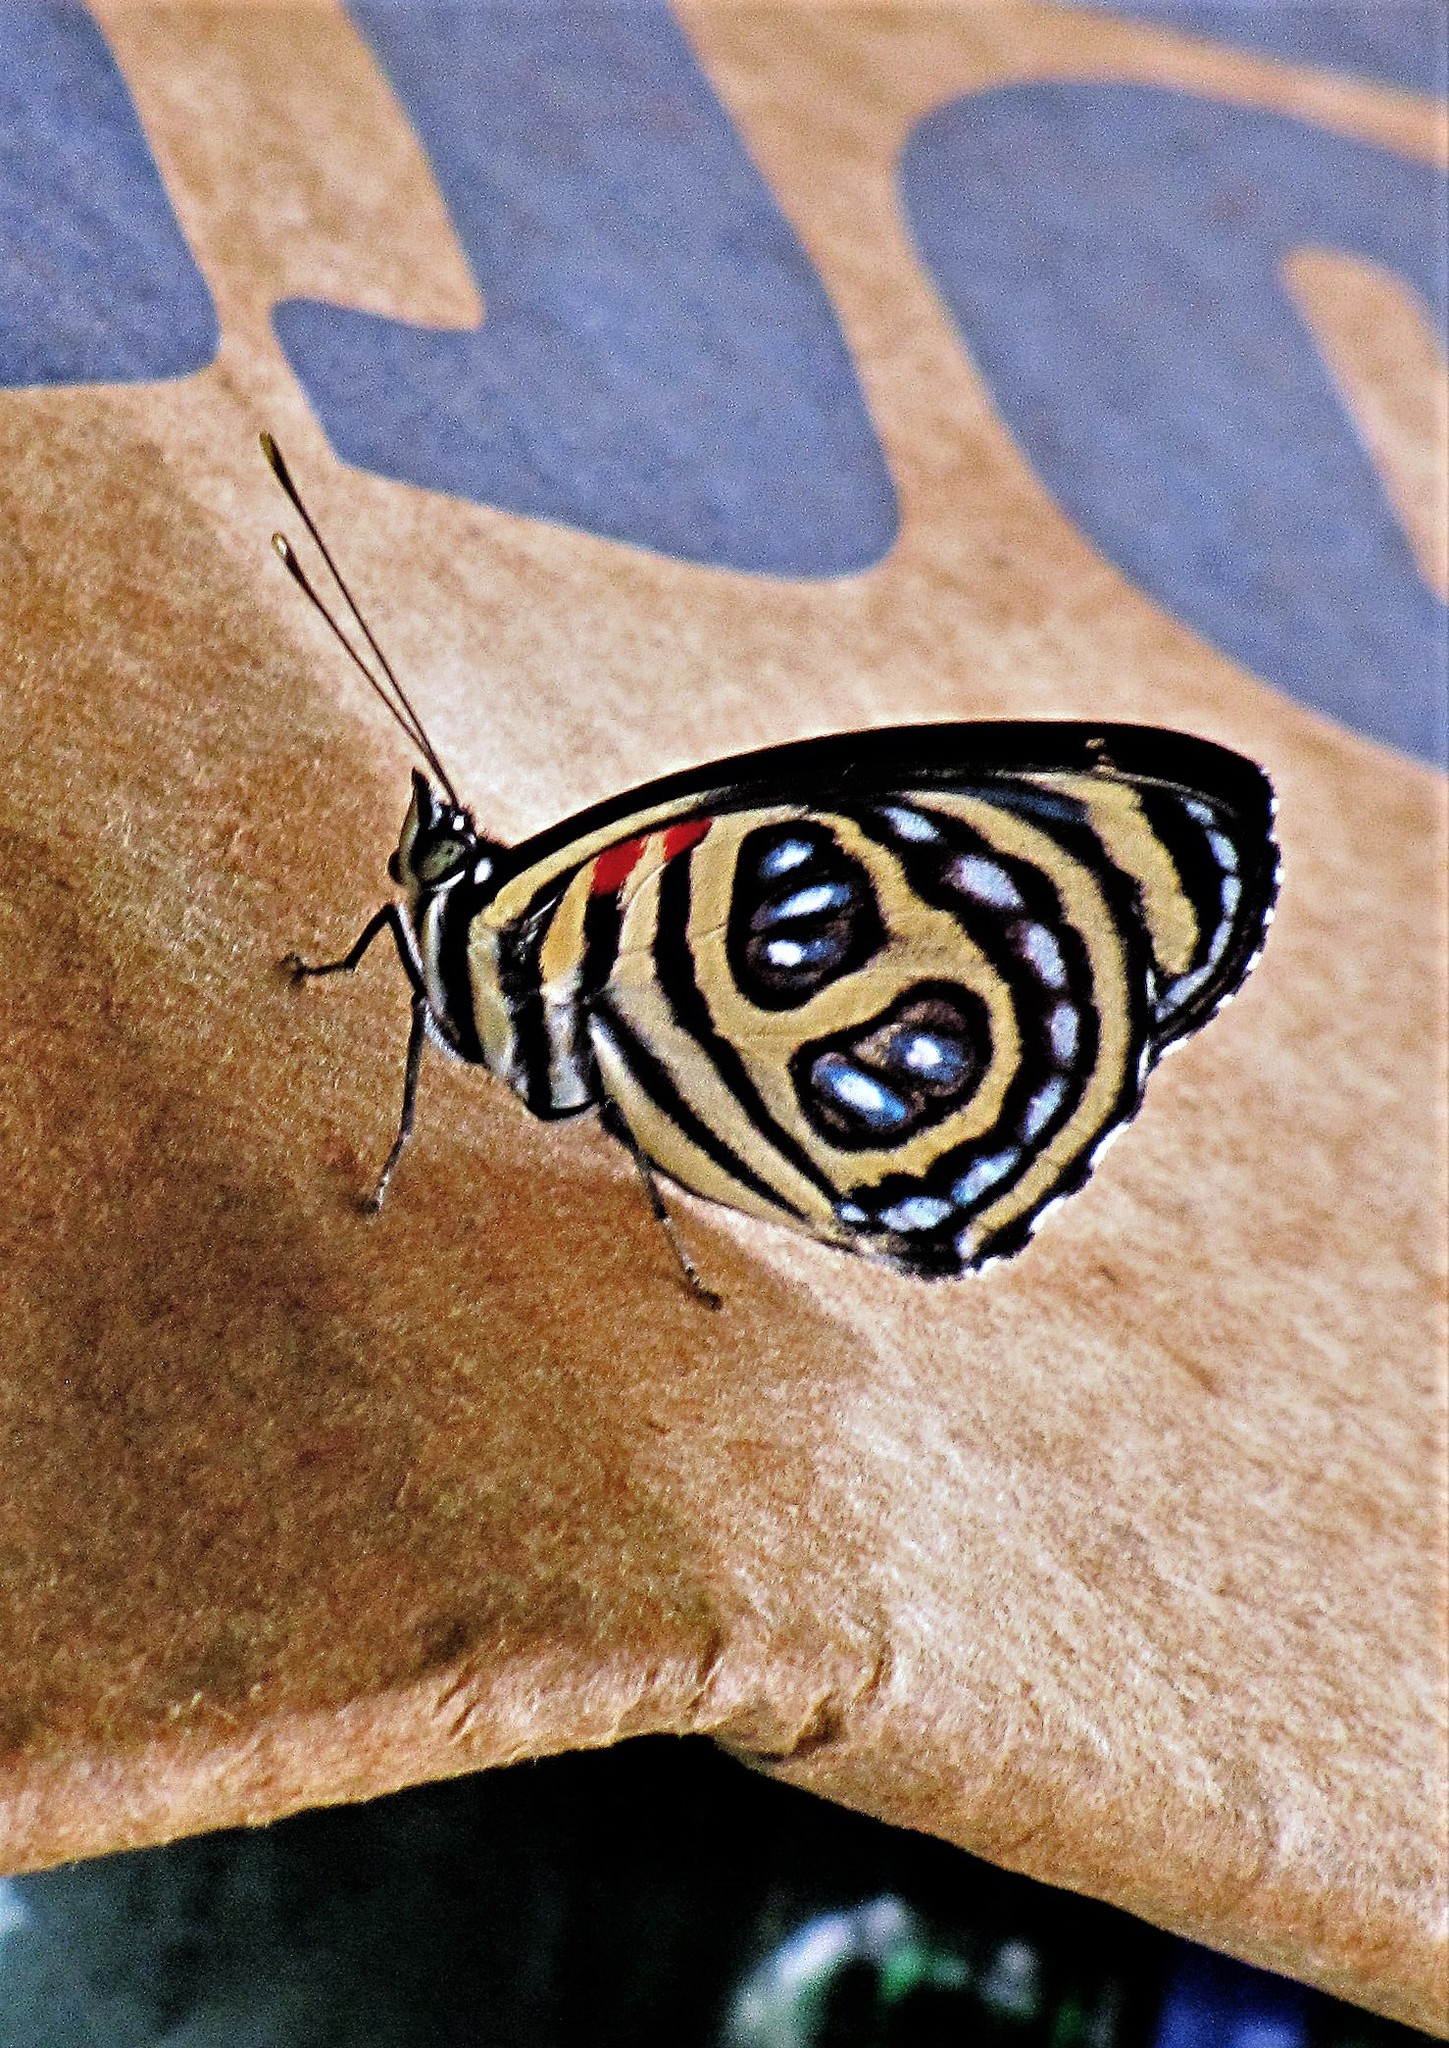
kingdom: Animalia
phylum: Arthropoda
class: Insecta
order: Lepidoptera
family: Nymphalidae
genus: Catagramma
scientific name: Catagramma pygas
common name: Godart's numberwing
